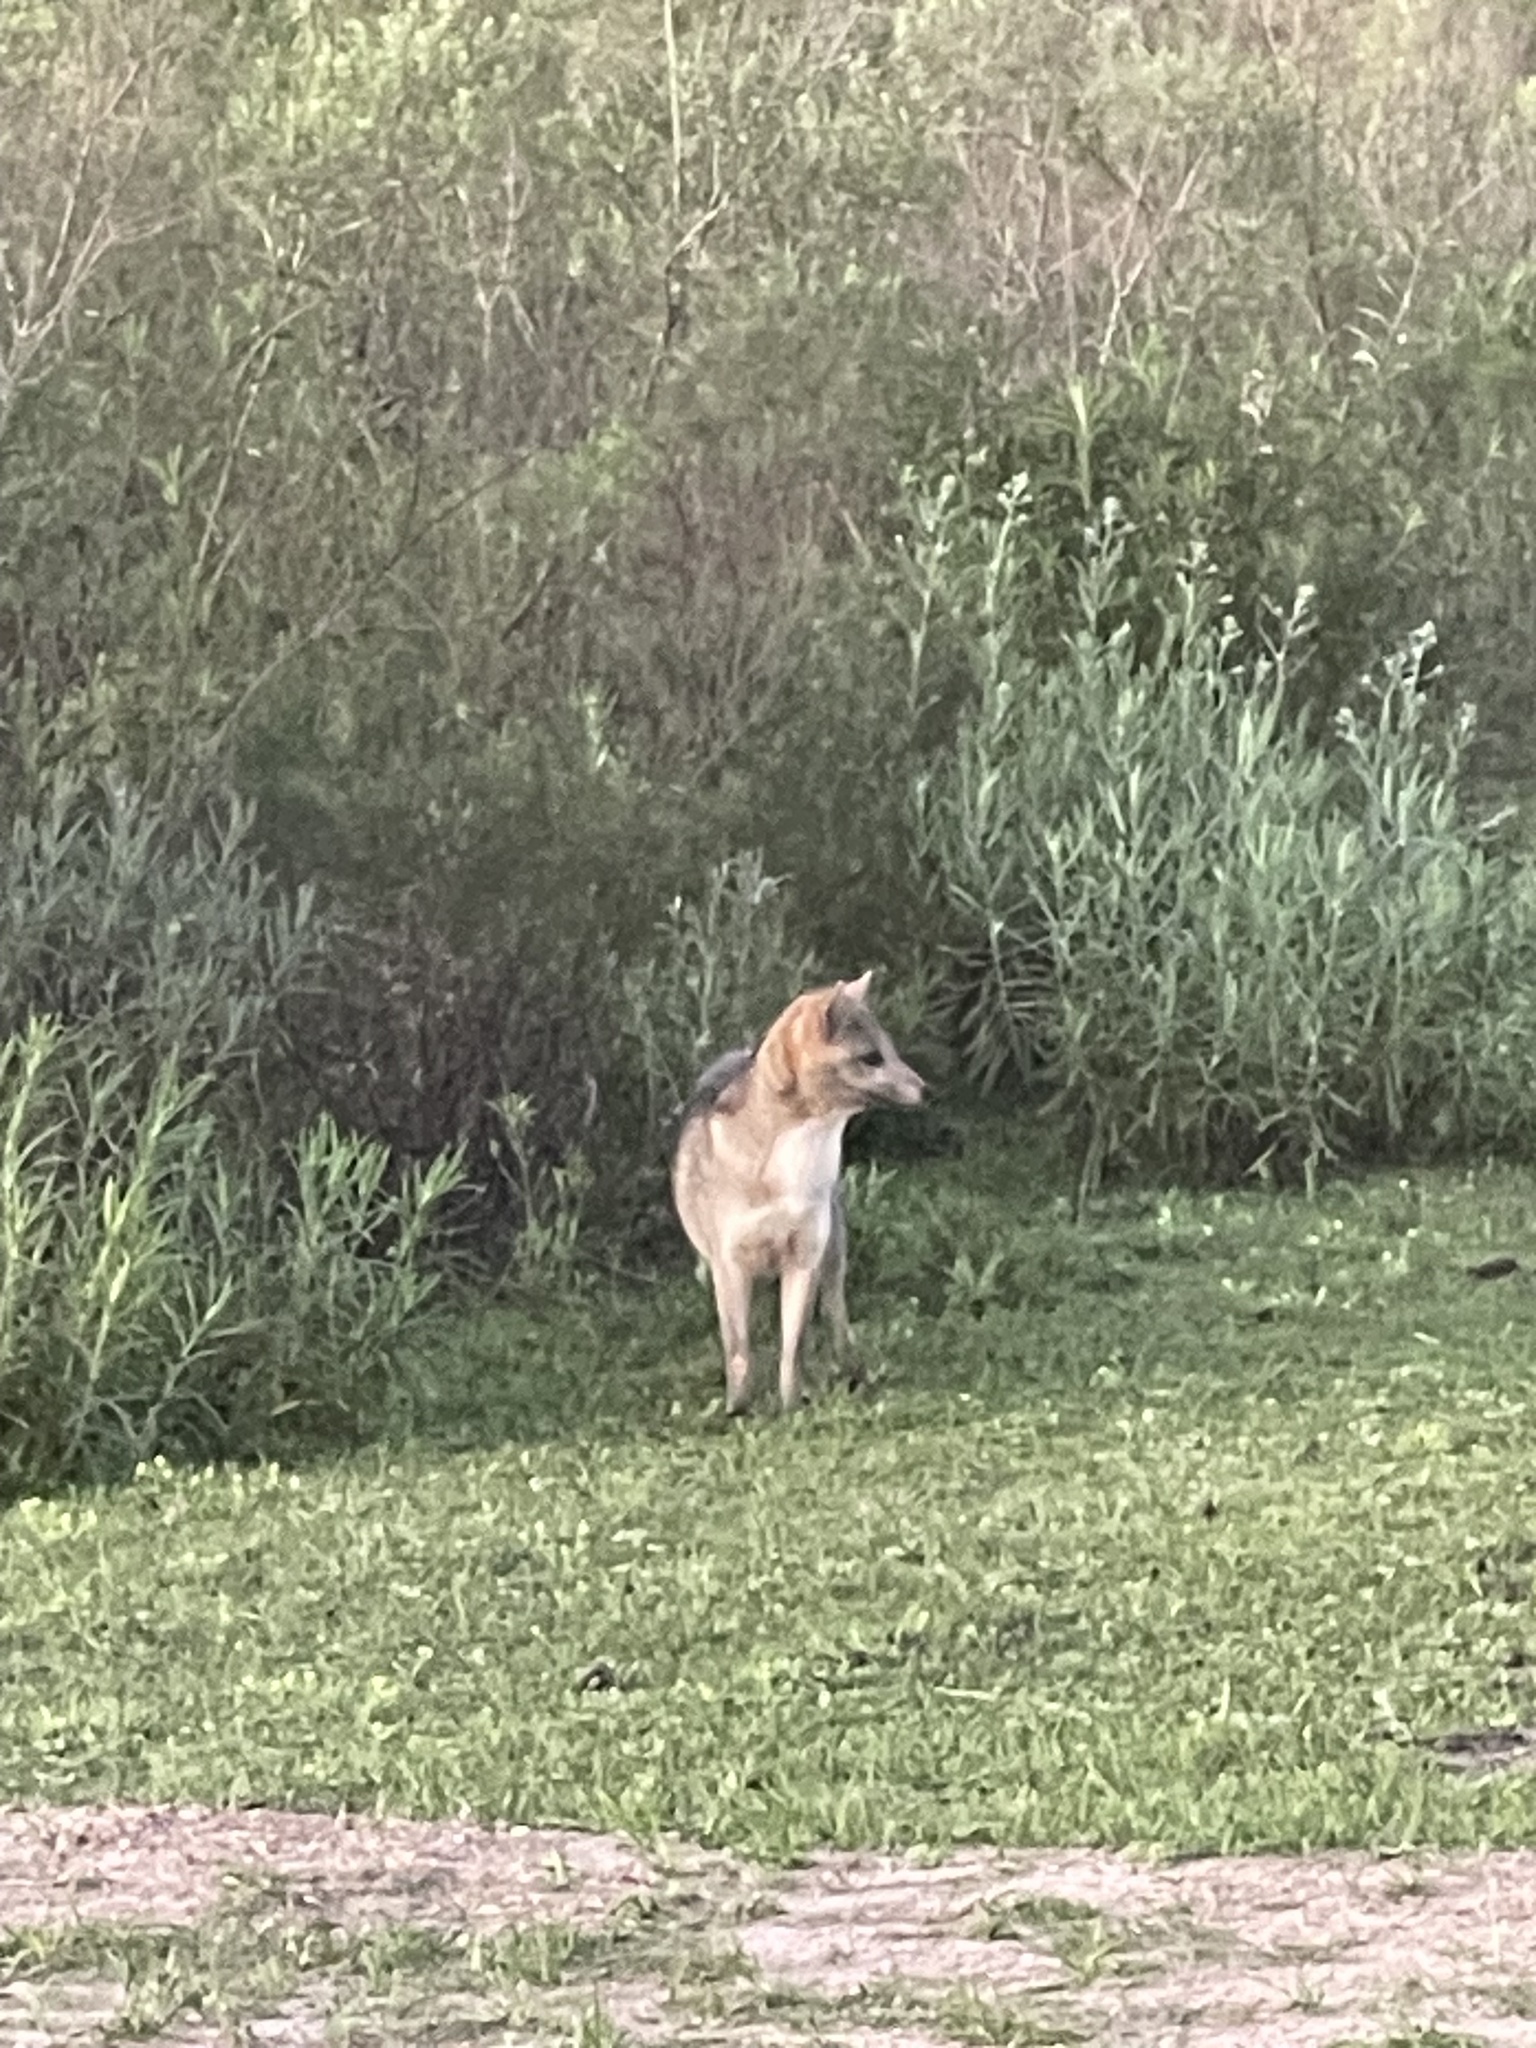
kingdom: Animalia
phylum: Chordata
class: Mammalia
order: Carnivora
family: Canidae
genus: Cerdocyon
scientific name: Cerdocyon thous
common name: Crab-eating fox
